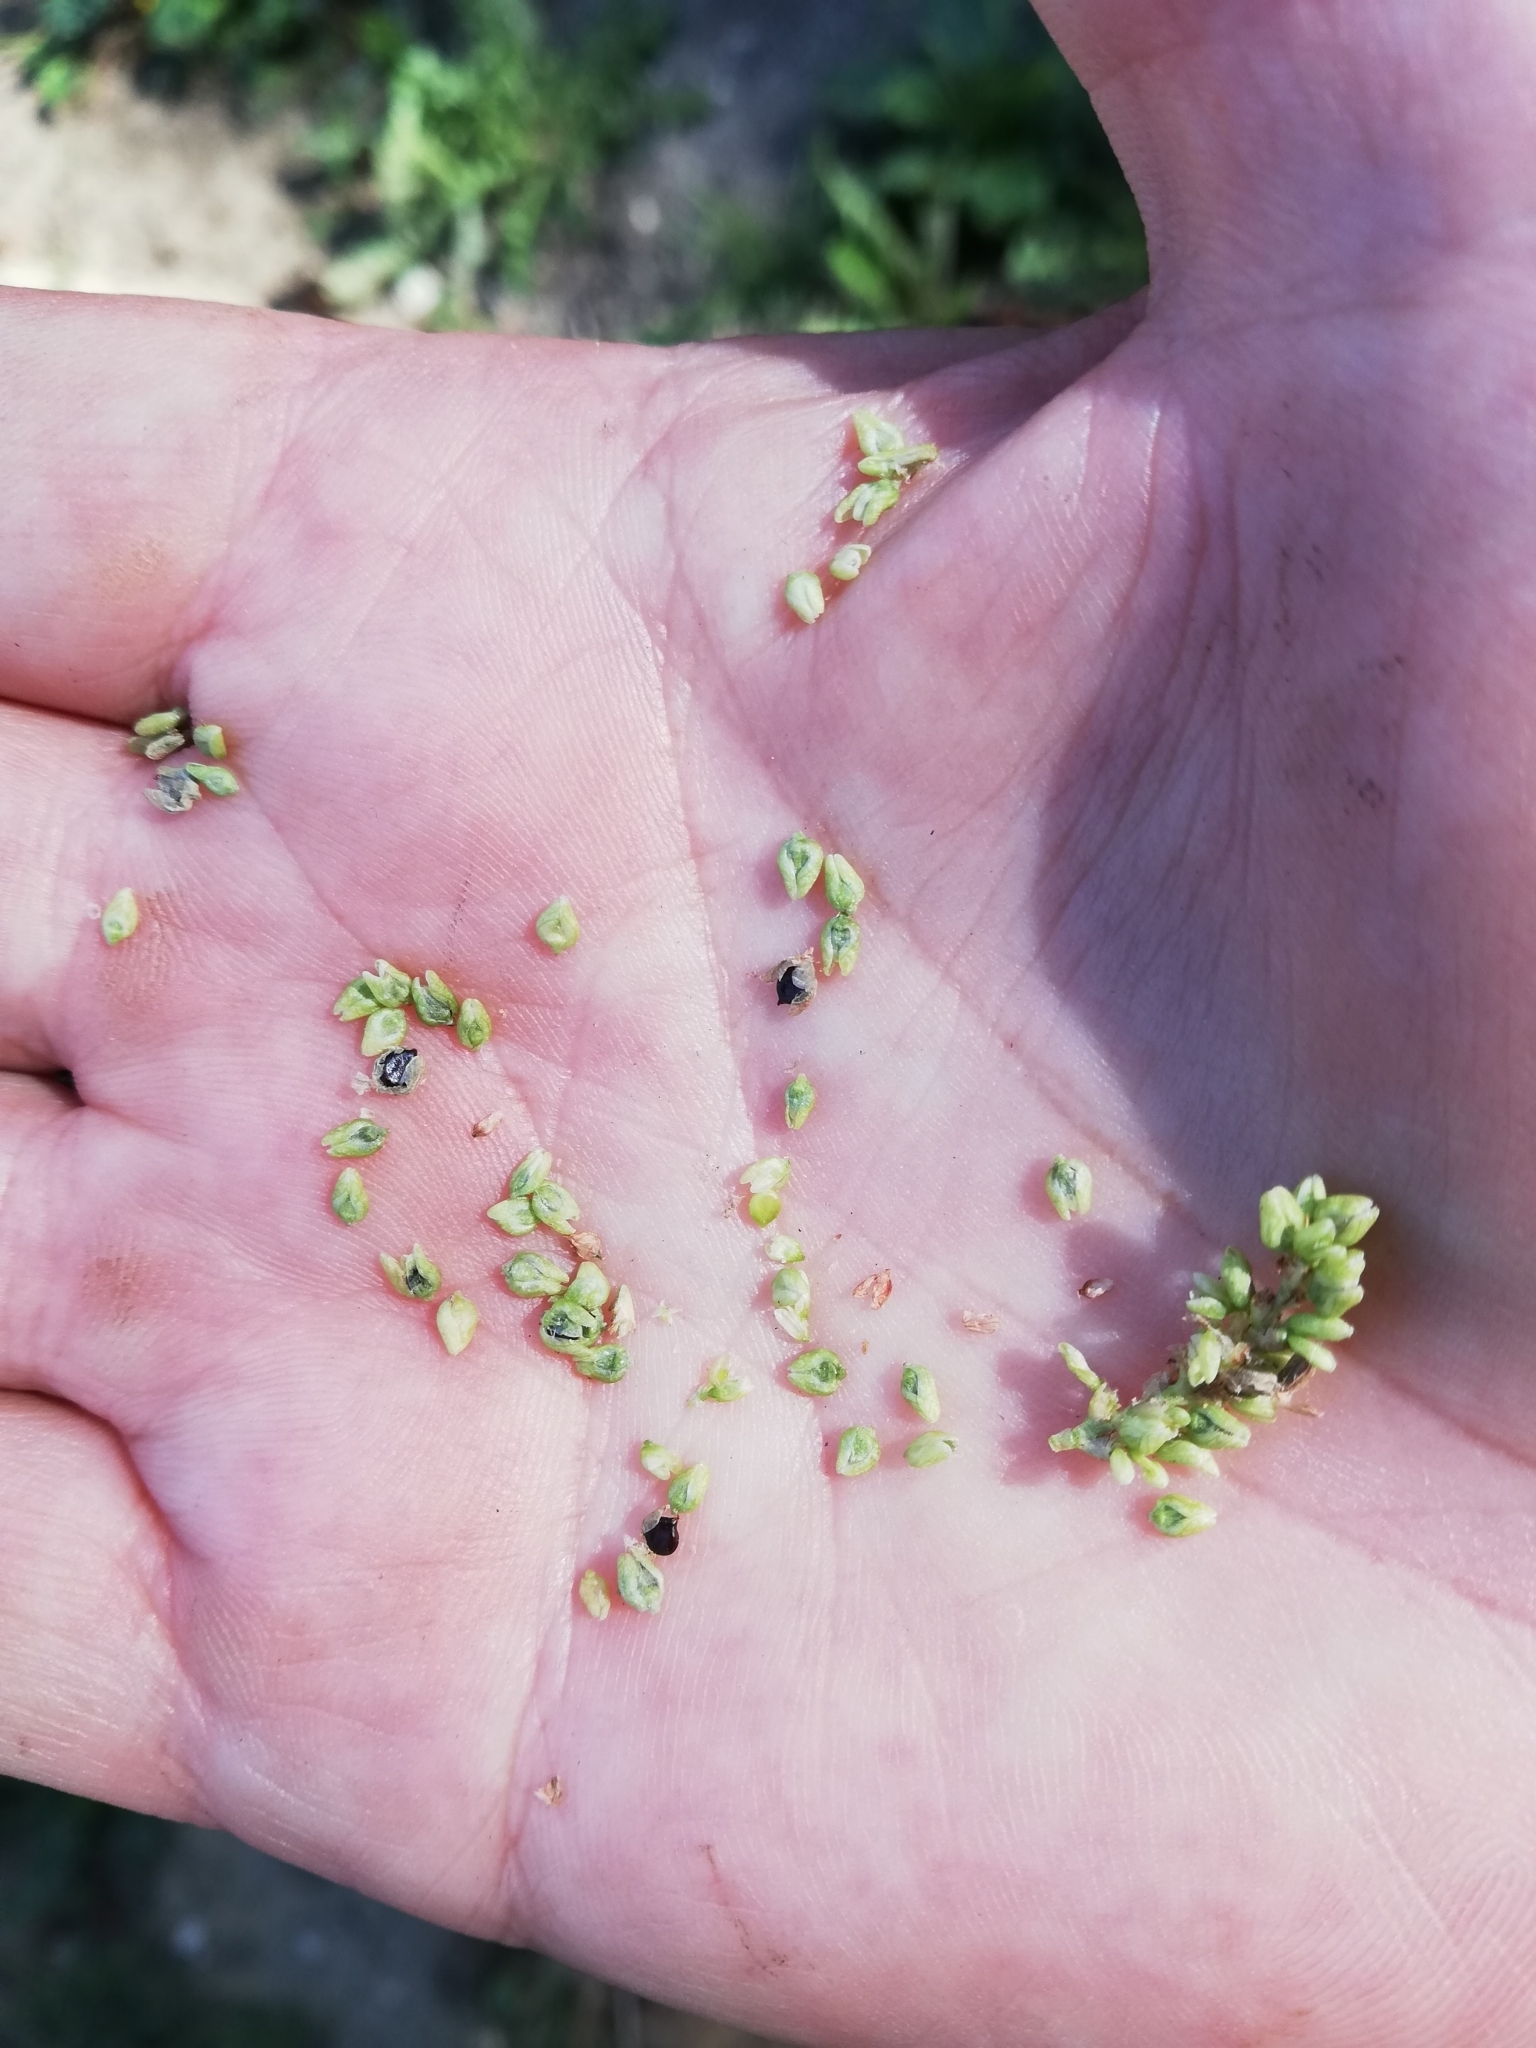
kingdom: Plantae
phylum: Tracheophyta
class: Magnoliopsida
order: Caryophyllales
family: Polygonaceae
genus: Persicaria
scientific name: Persicaria lapathifolia
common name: Curlytop knotweed
